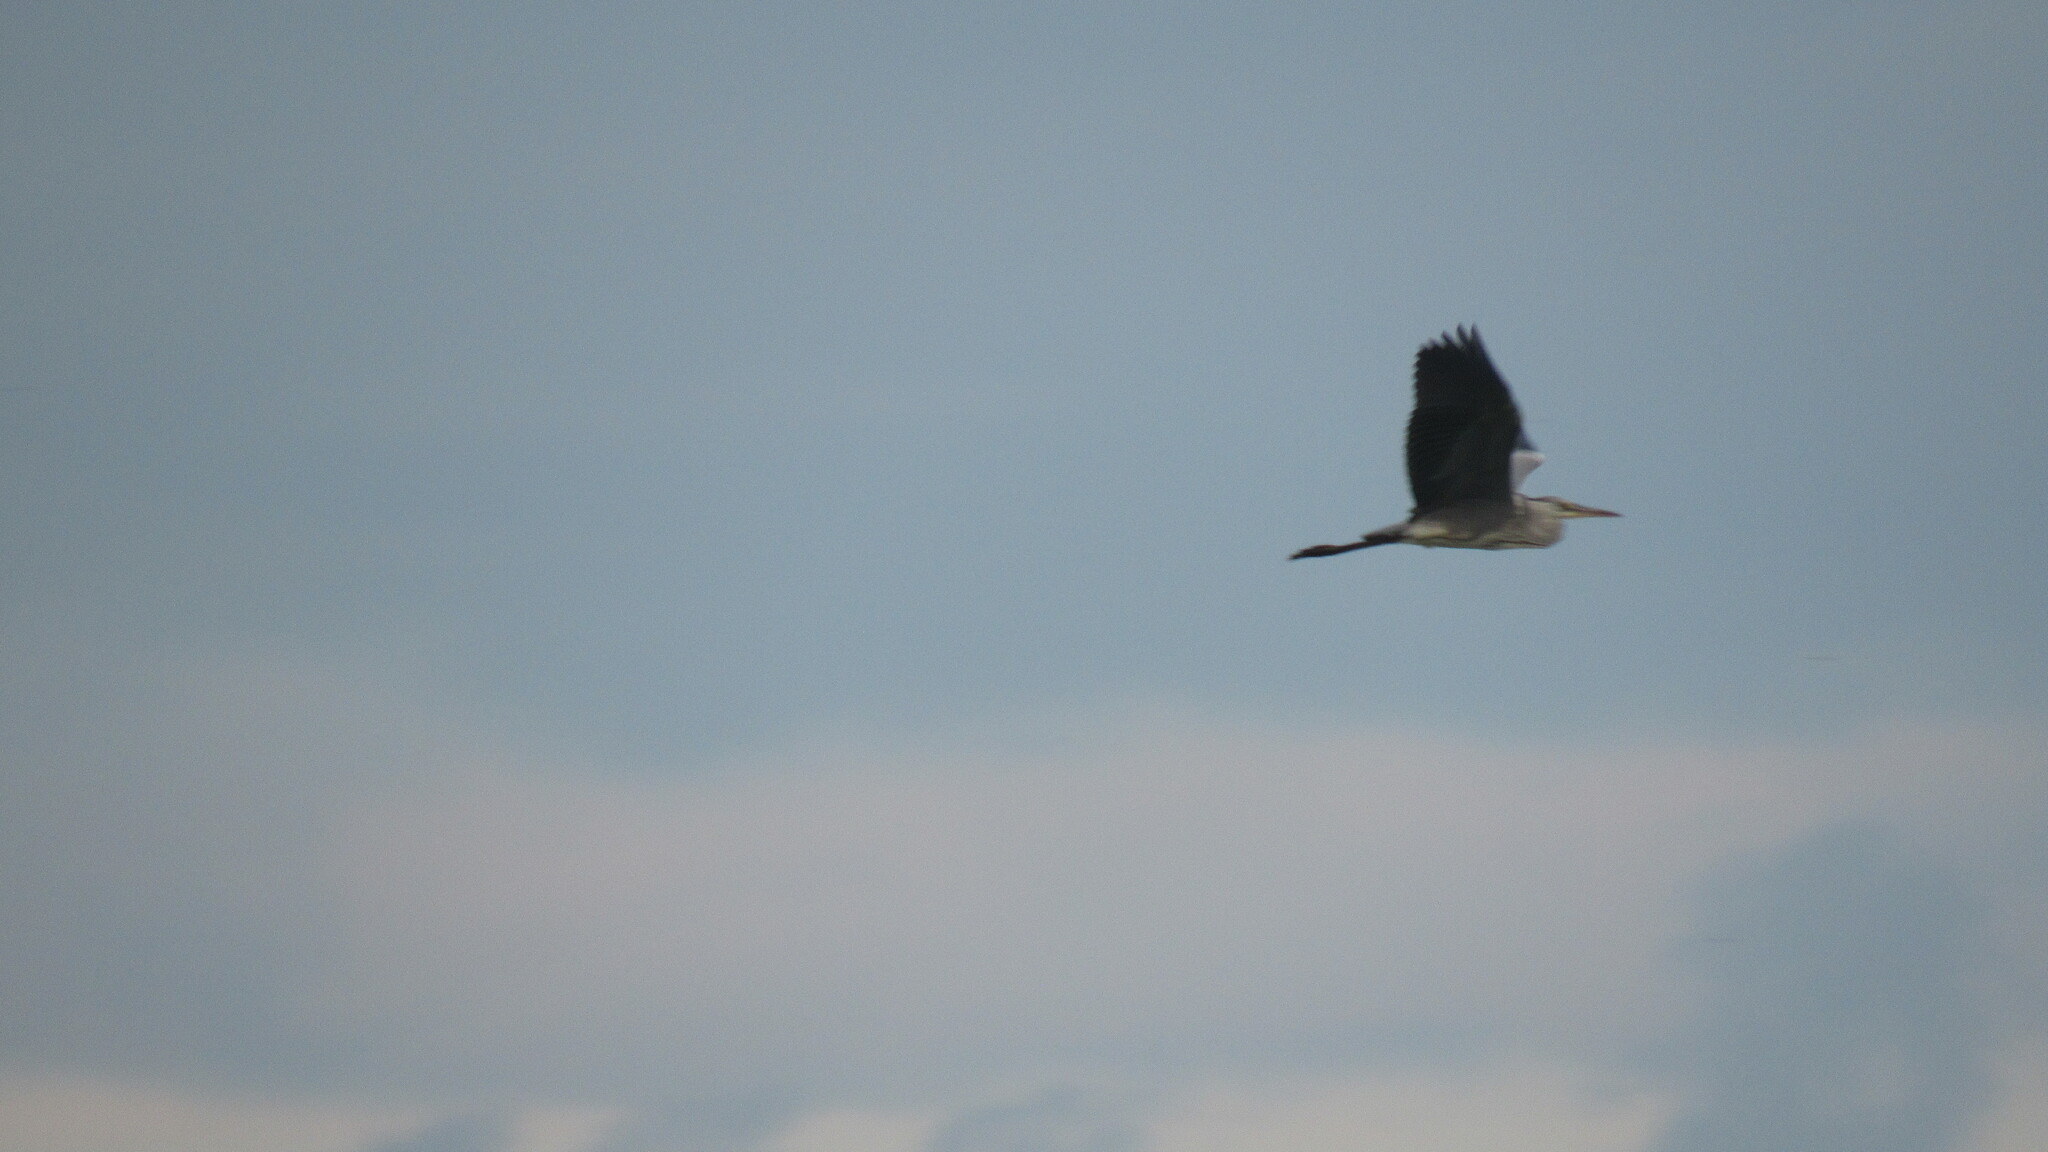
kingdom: Animalia
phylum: Chordata
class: Aves
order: Pelecaniformes
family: Ardeidae
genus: Ardea
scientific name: Ardea cinerea
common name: Grey heron
